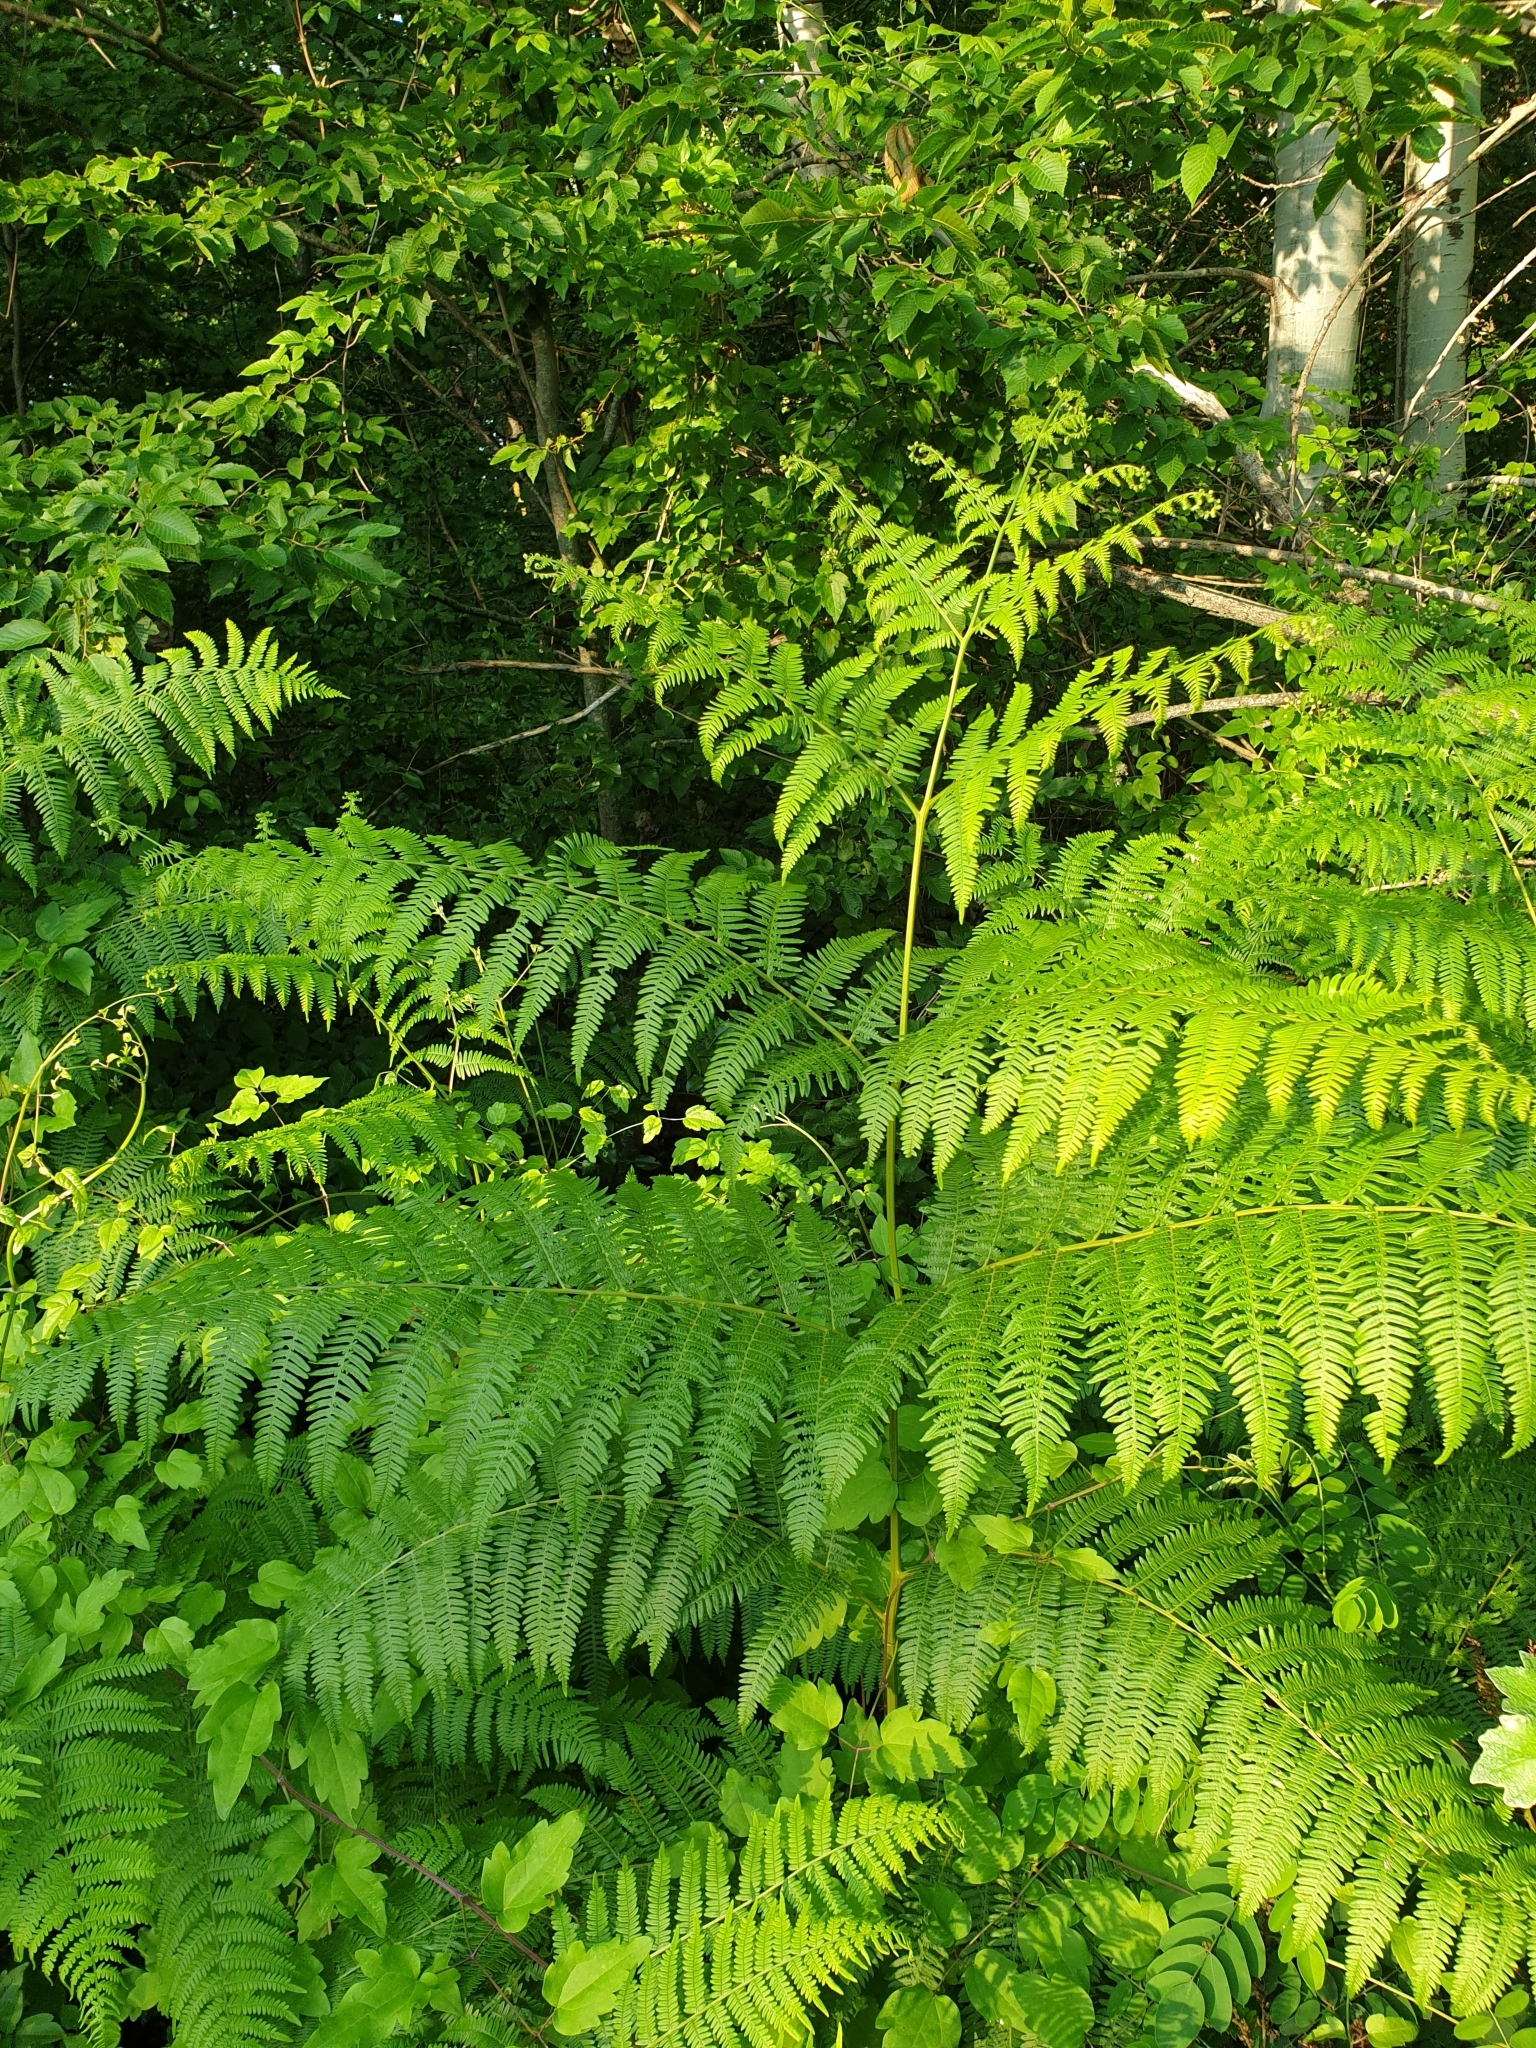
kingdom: Plantae
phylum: Tracheophyta
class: Polypodiopsida
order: Polypodiales
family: Dennstaedtiaceae
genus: Pteridium
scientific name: Pteridium tauricum
